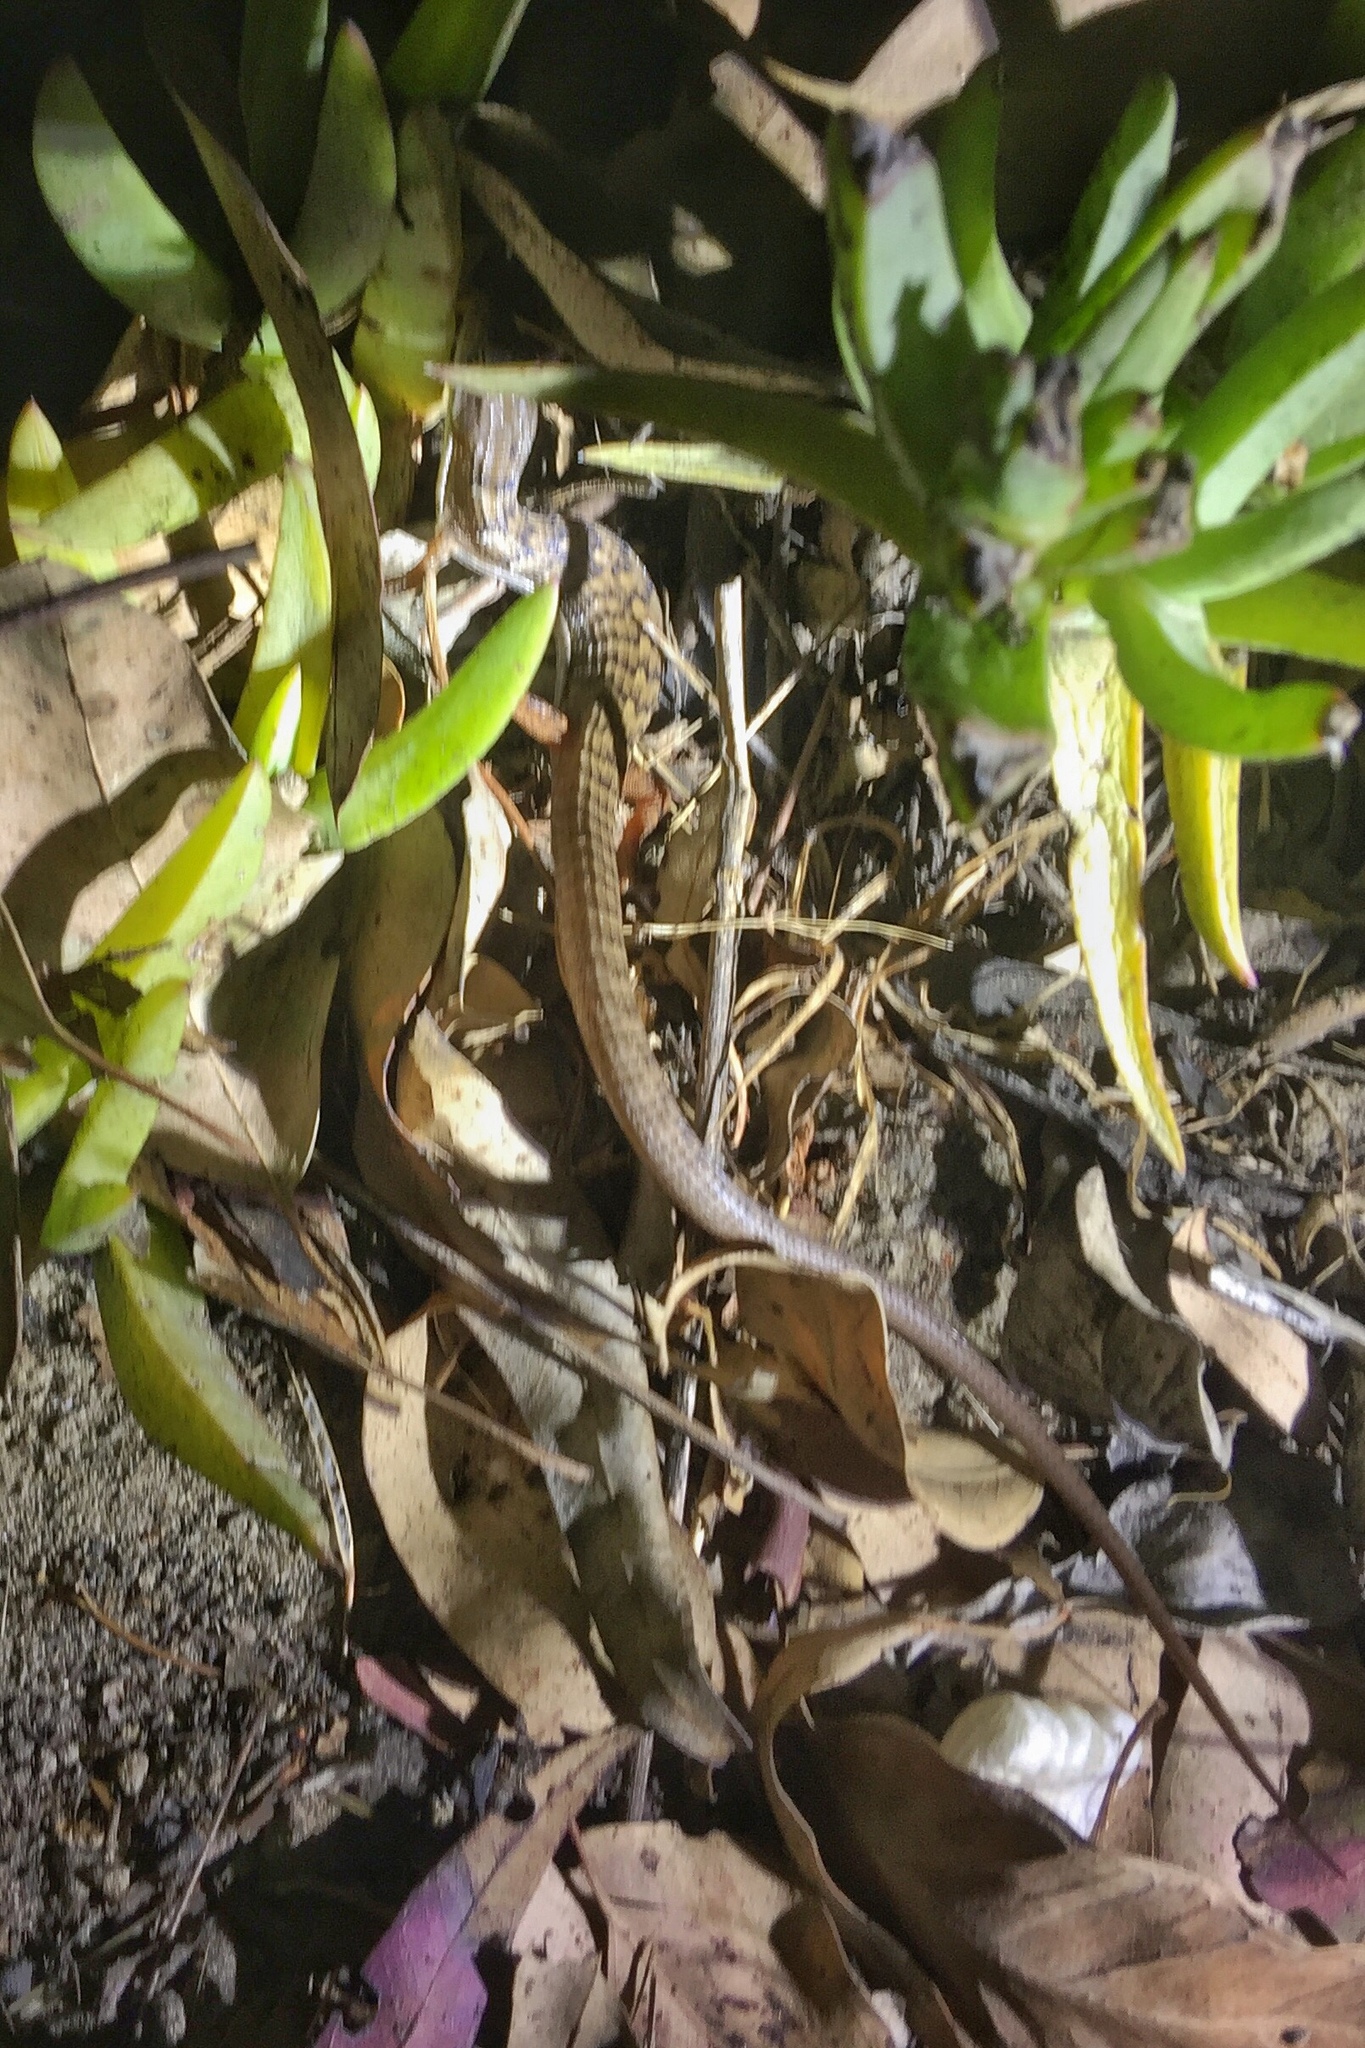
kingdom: Animalia
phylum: Chordata
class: Squamata
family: Anguidae
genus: Elgaria
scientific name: Elgaria multicarinata
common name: Southern alligator lizard
